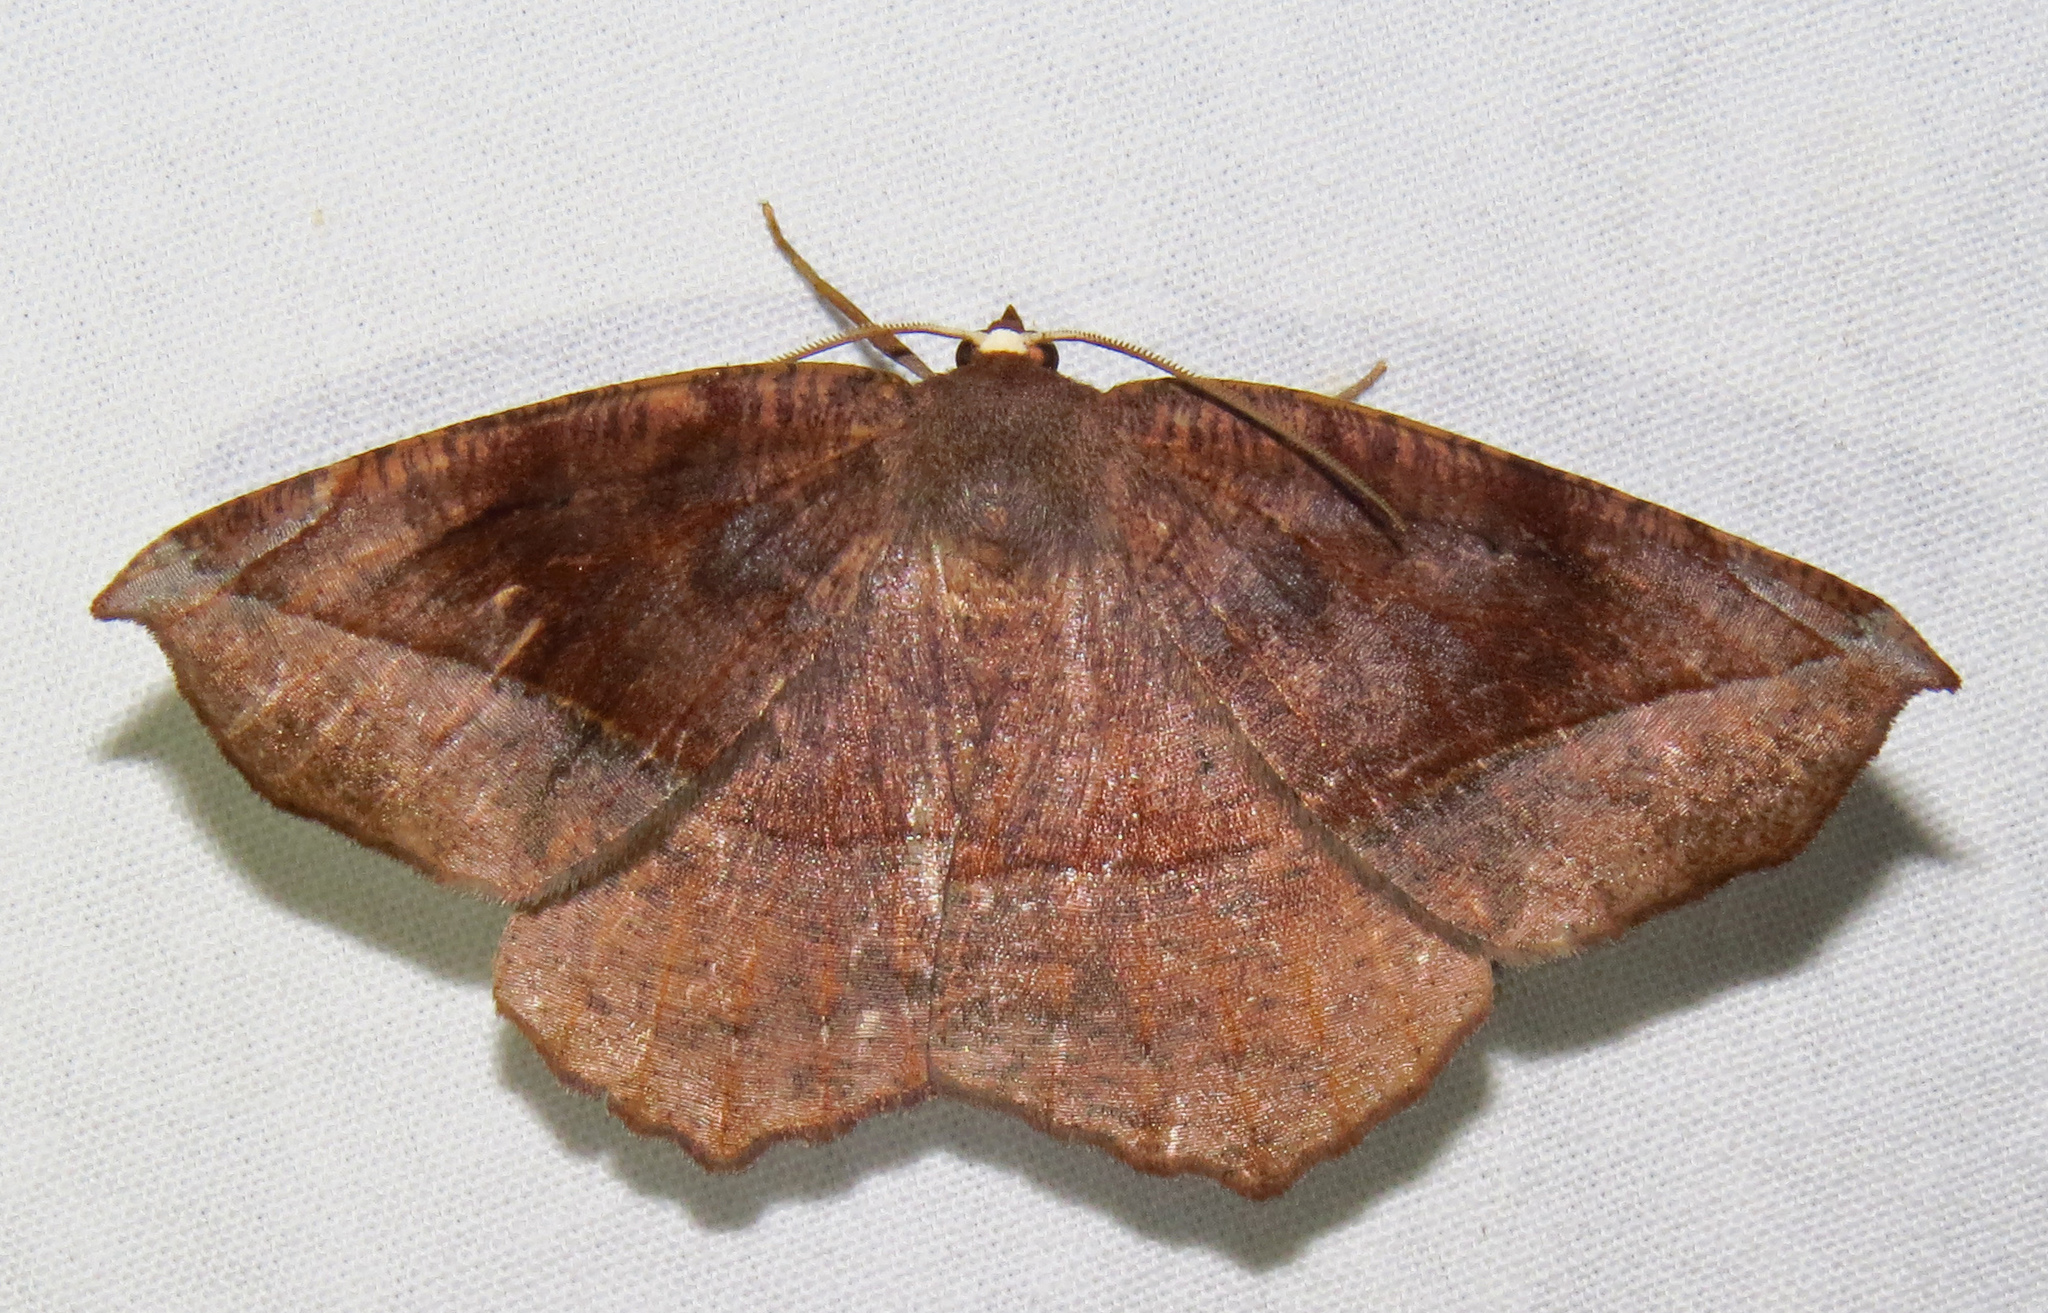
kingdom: Animalia
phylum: Arthropoda
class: Insecta
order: Lepidoptera
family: Geometridae
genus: Eutrapela
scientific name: Eutrapela clemataria
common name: Curved-toothed geometer
